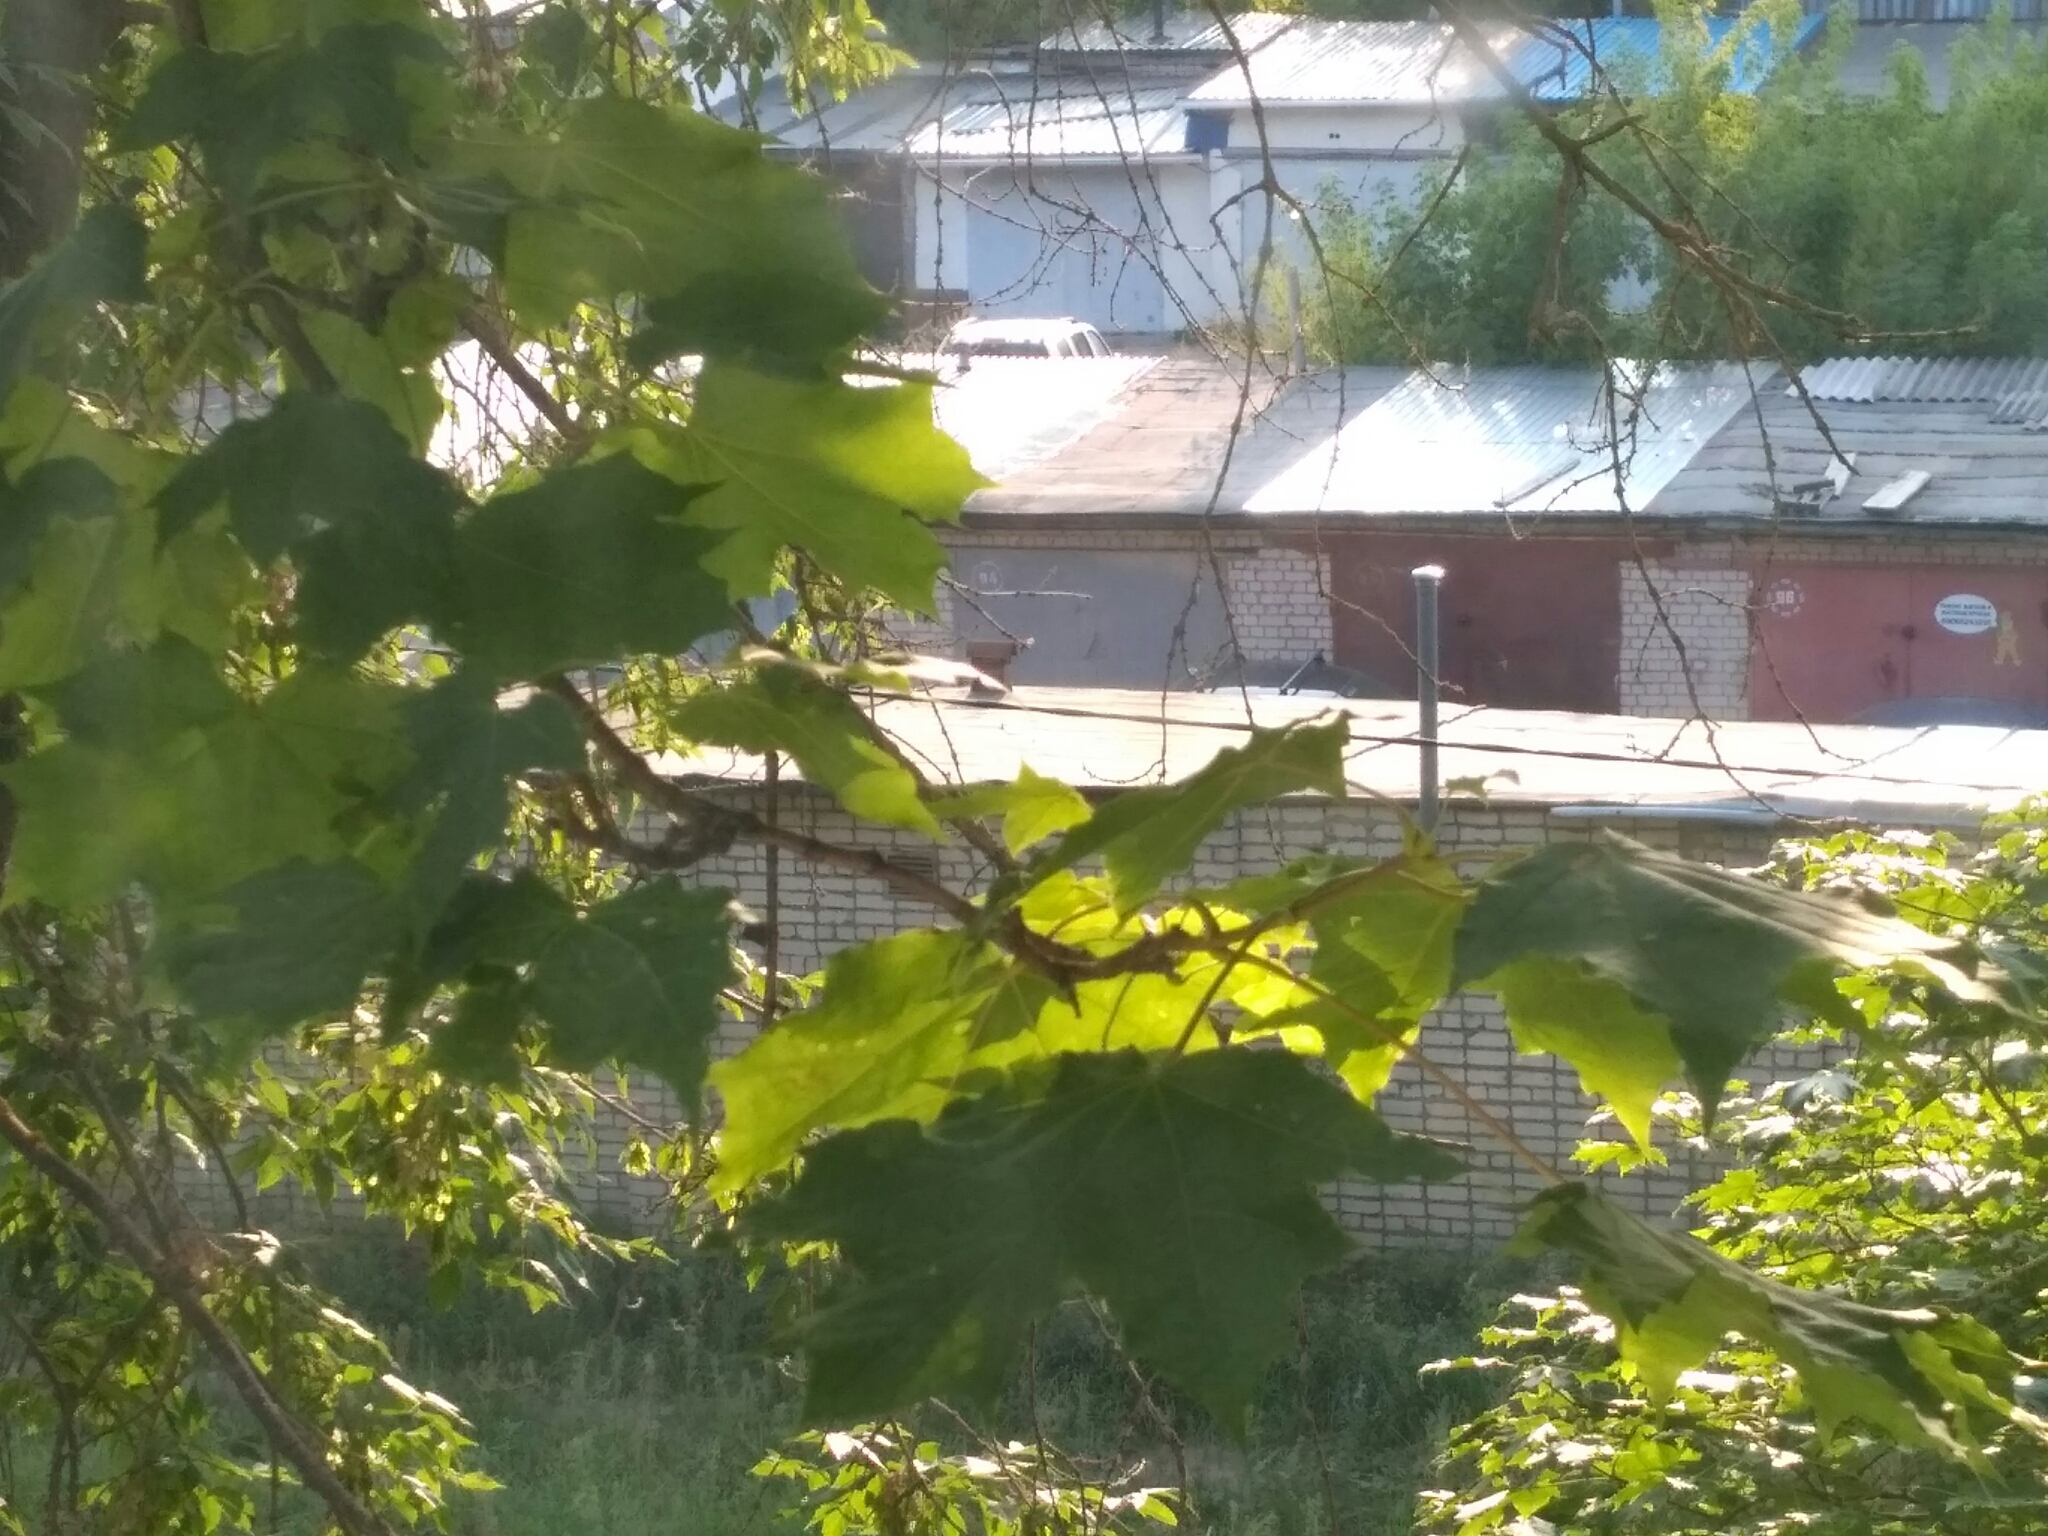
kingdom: Plantae
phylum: Tracheophyta
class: Magnoliopsida
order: Sapindales
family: Sapindaceae
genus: Acer
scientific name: Acer platanoides
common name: Norway maple
